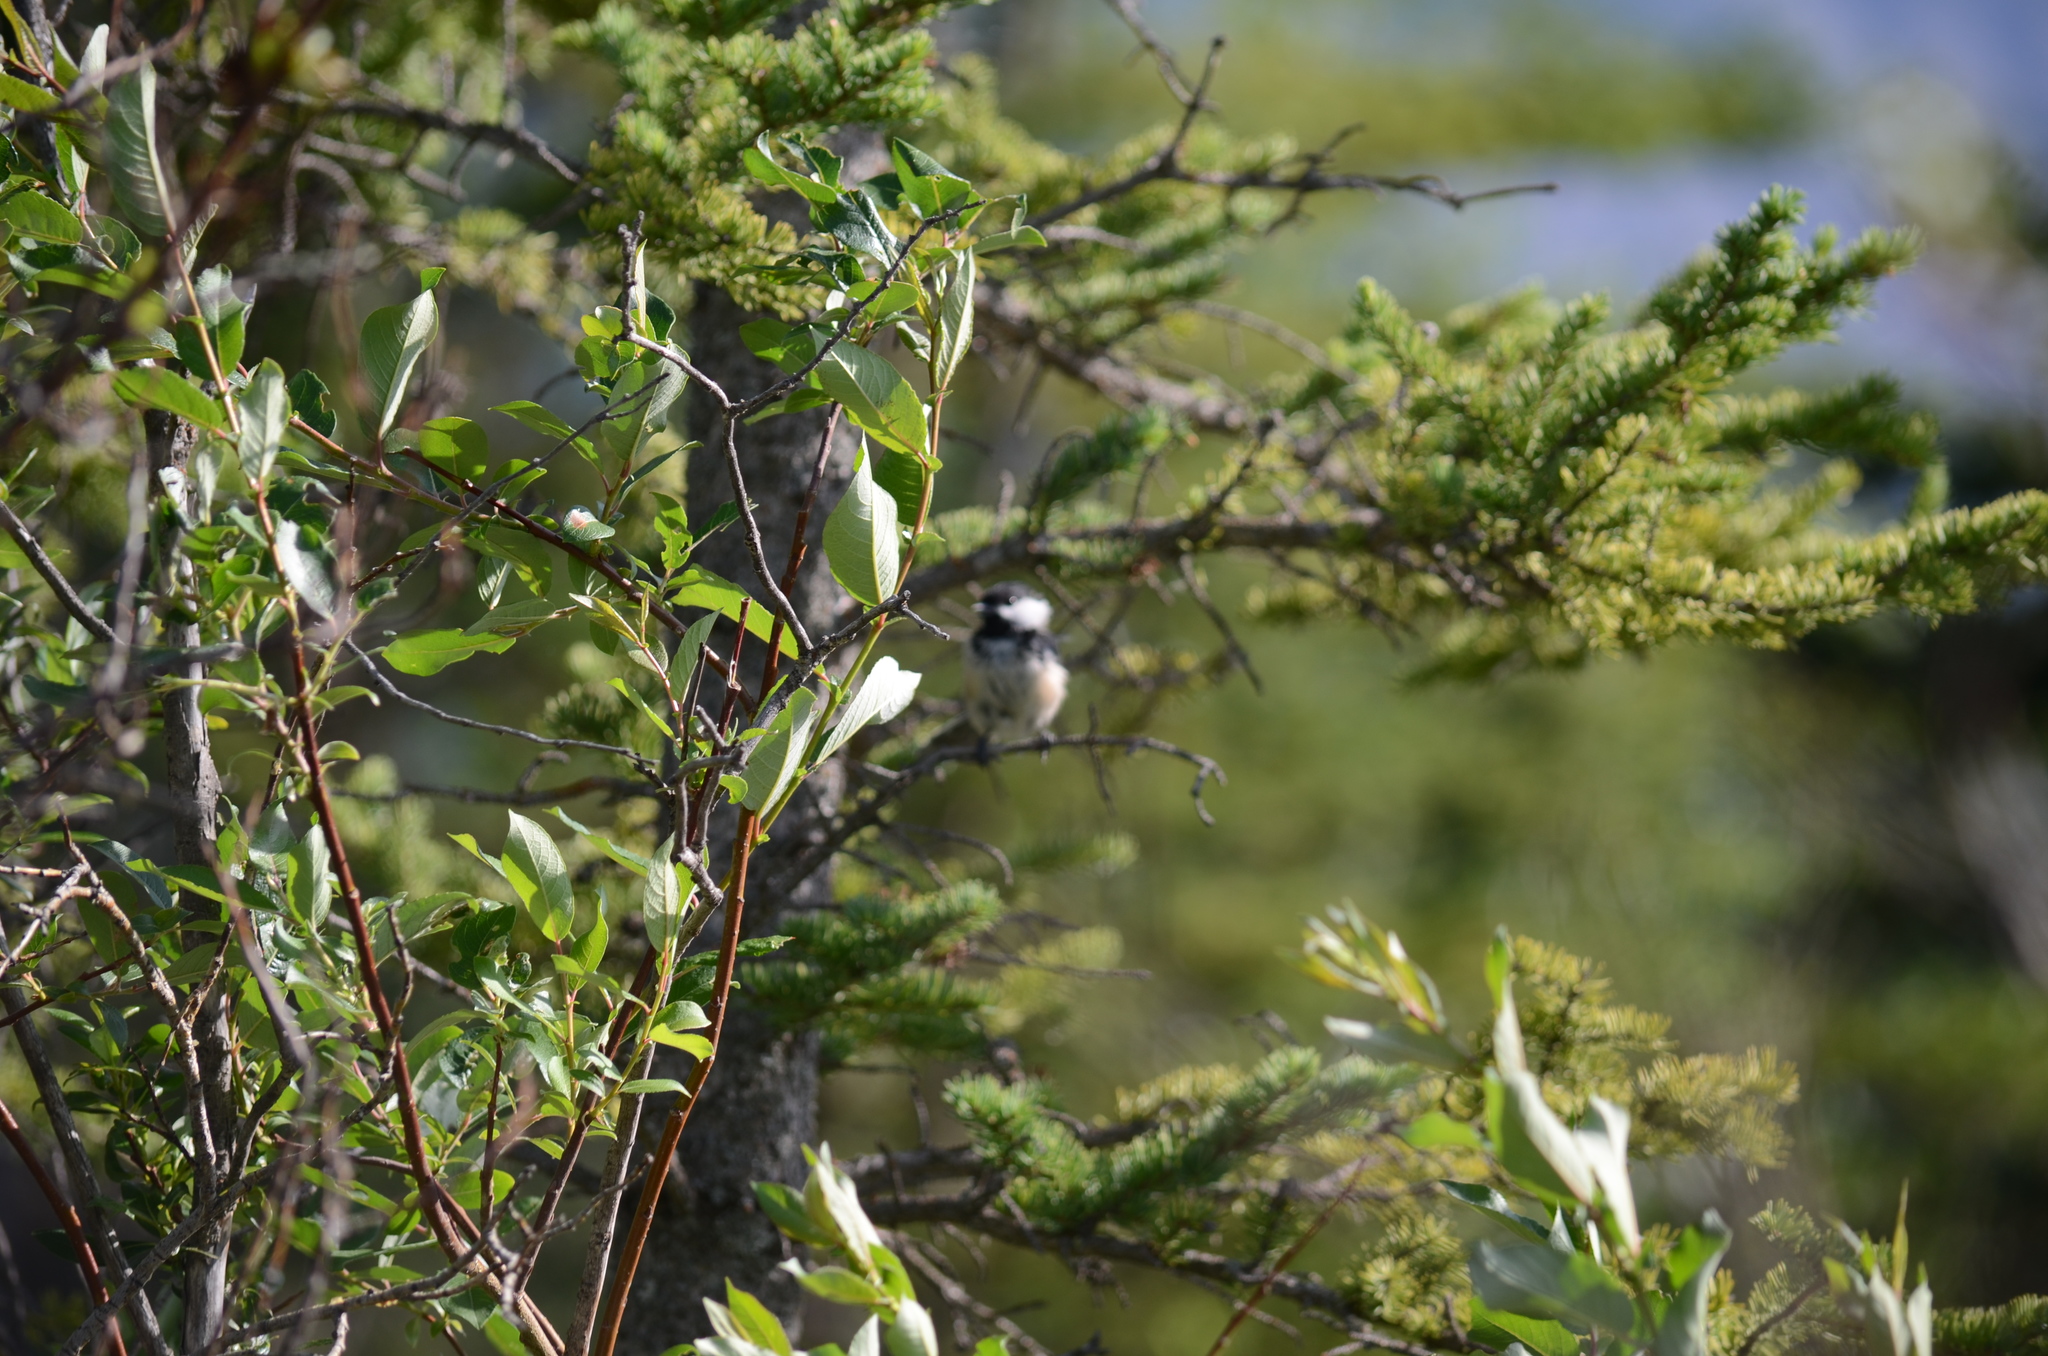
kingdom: Animalia
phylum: Chordata
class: Aves
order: Passeriformes
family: Paridae
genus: Poecile
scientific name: Poecile atricapillus
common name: Black-capped chickadee
